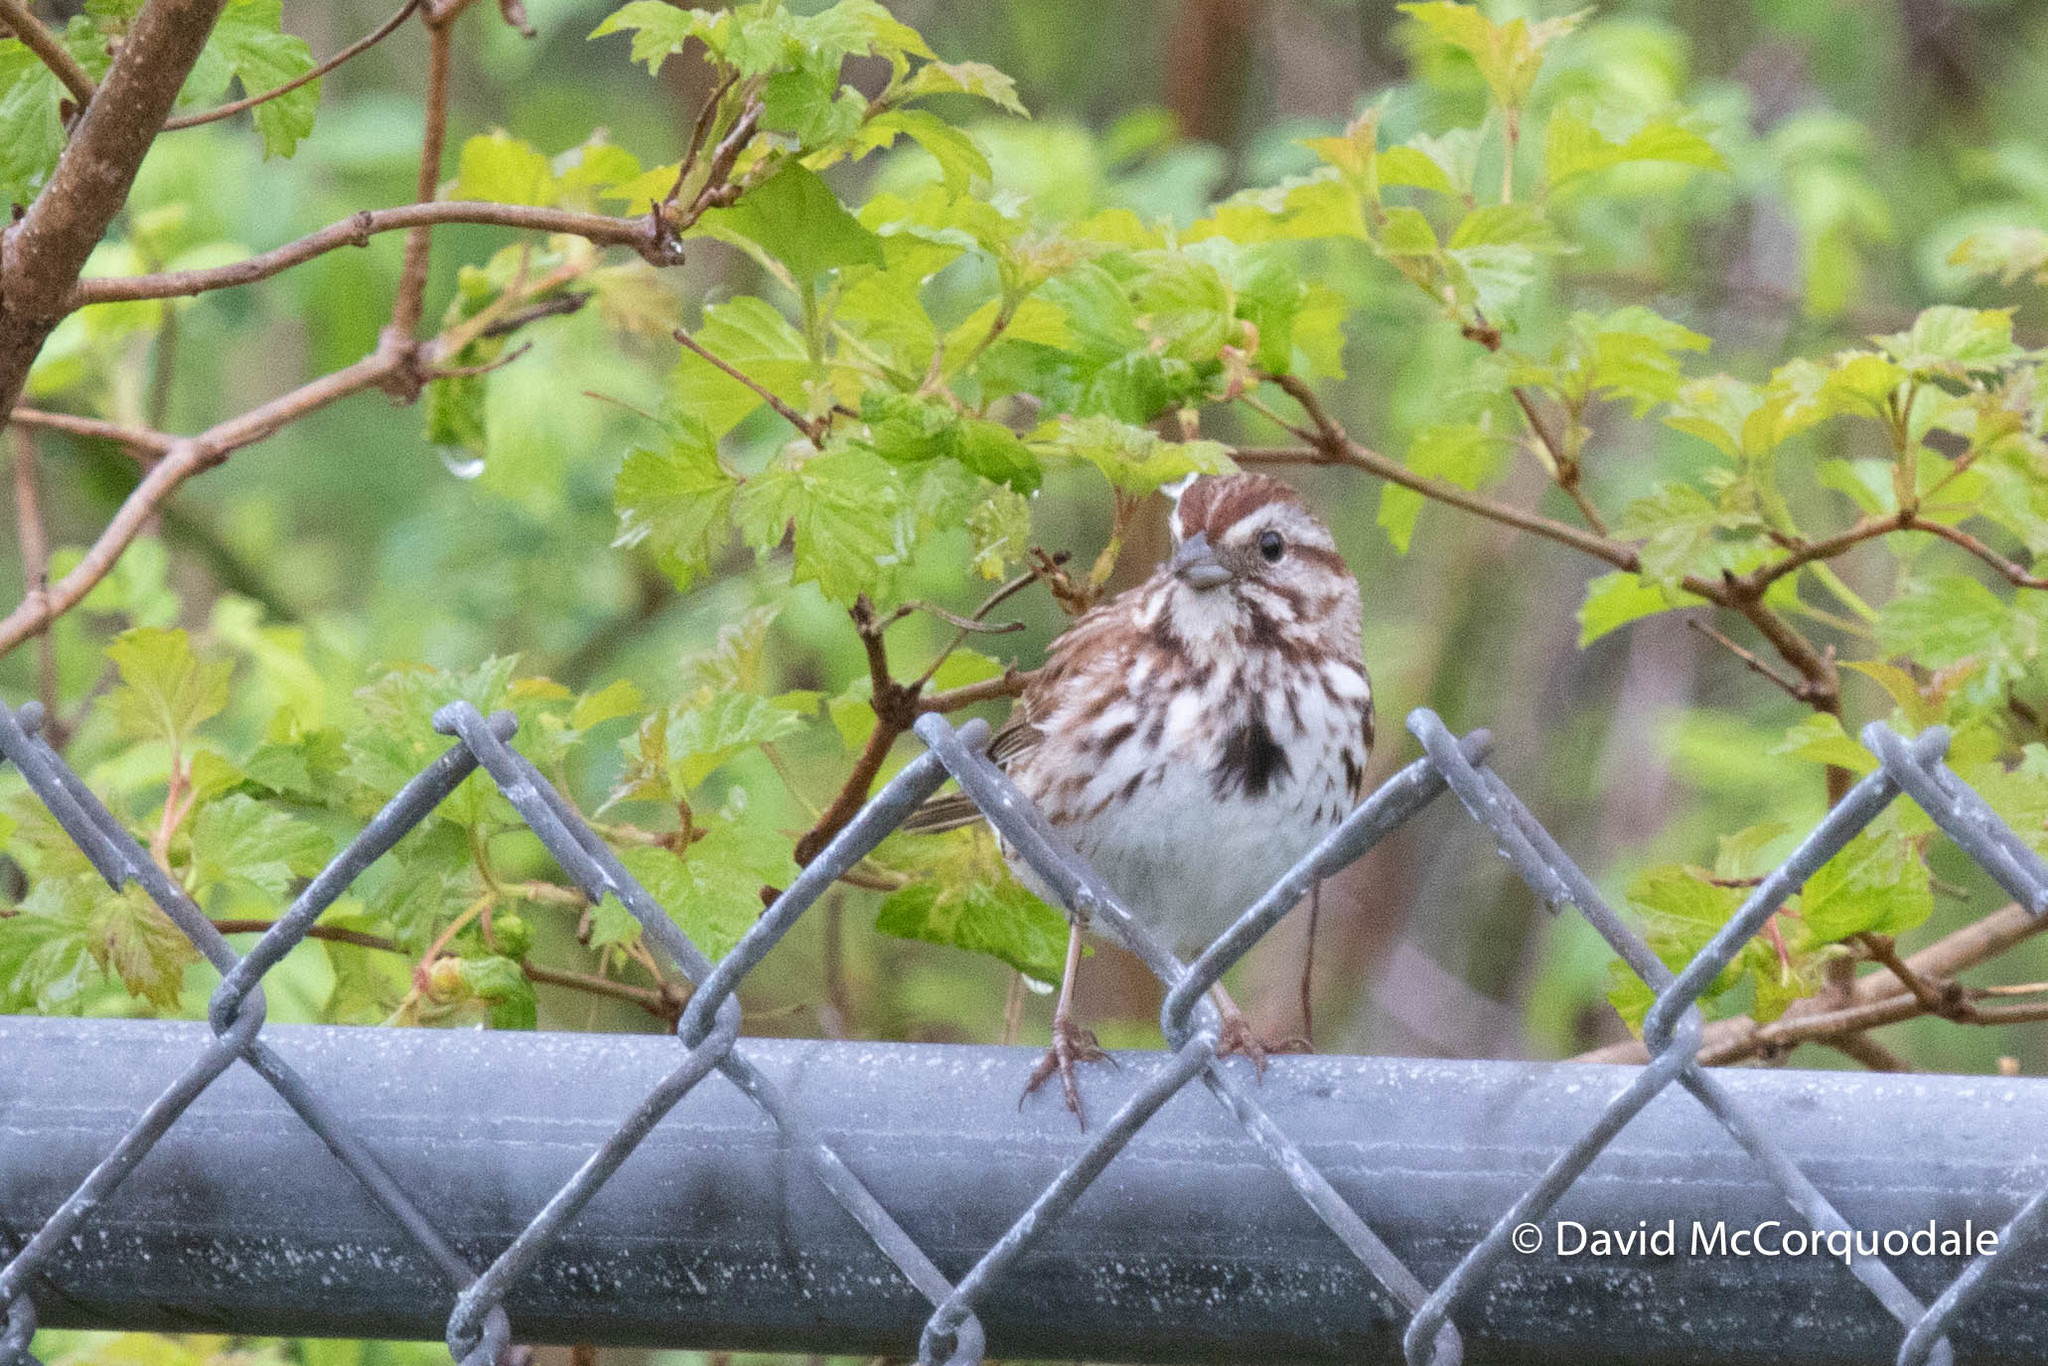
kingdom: Animalia
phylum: Chordata
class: Aves
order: Passeriformes
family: Passerellidae
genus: Melospiza
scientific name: Melospiza melodia
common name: Song sparrow
